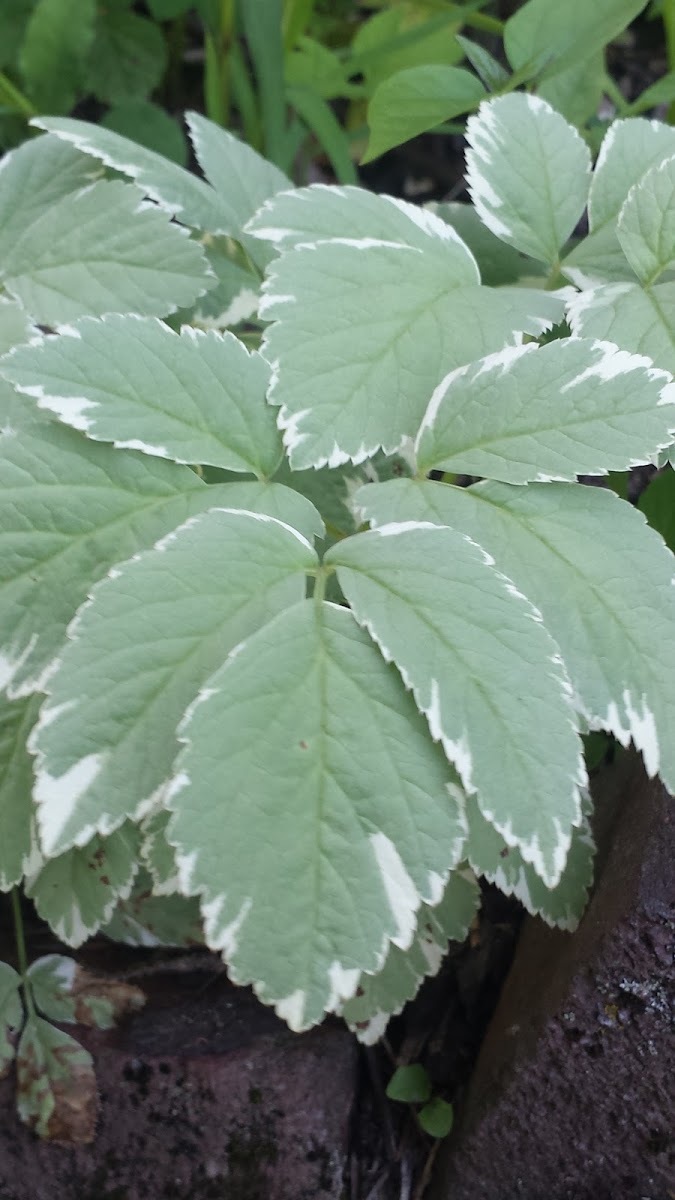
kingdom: Plantae
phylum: Tracheophyta
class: Magnoliopsida
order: Apiales
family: Apiaceae
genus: Aegopodium
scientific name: Aegopodium podagraria
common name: Ground-elder
